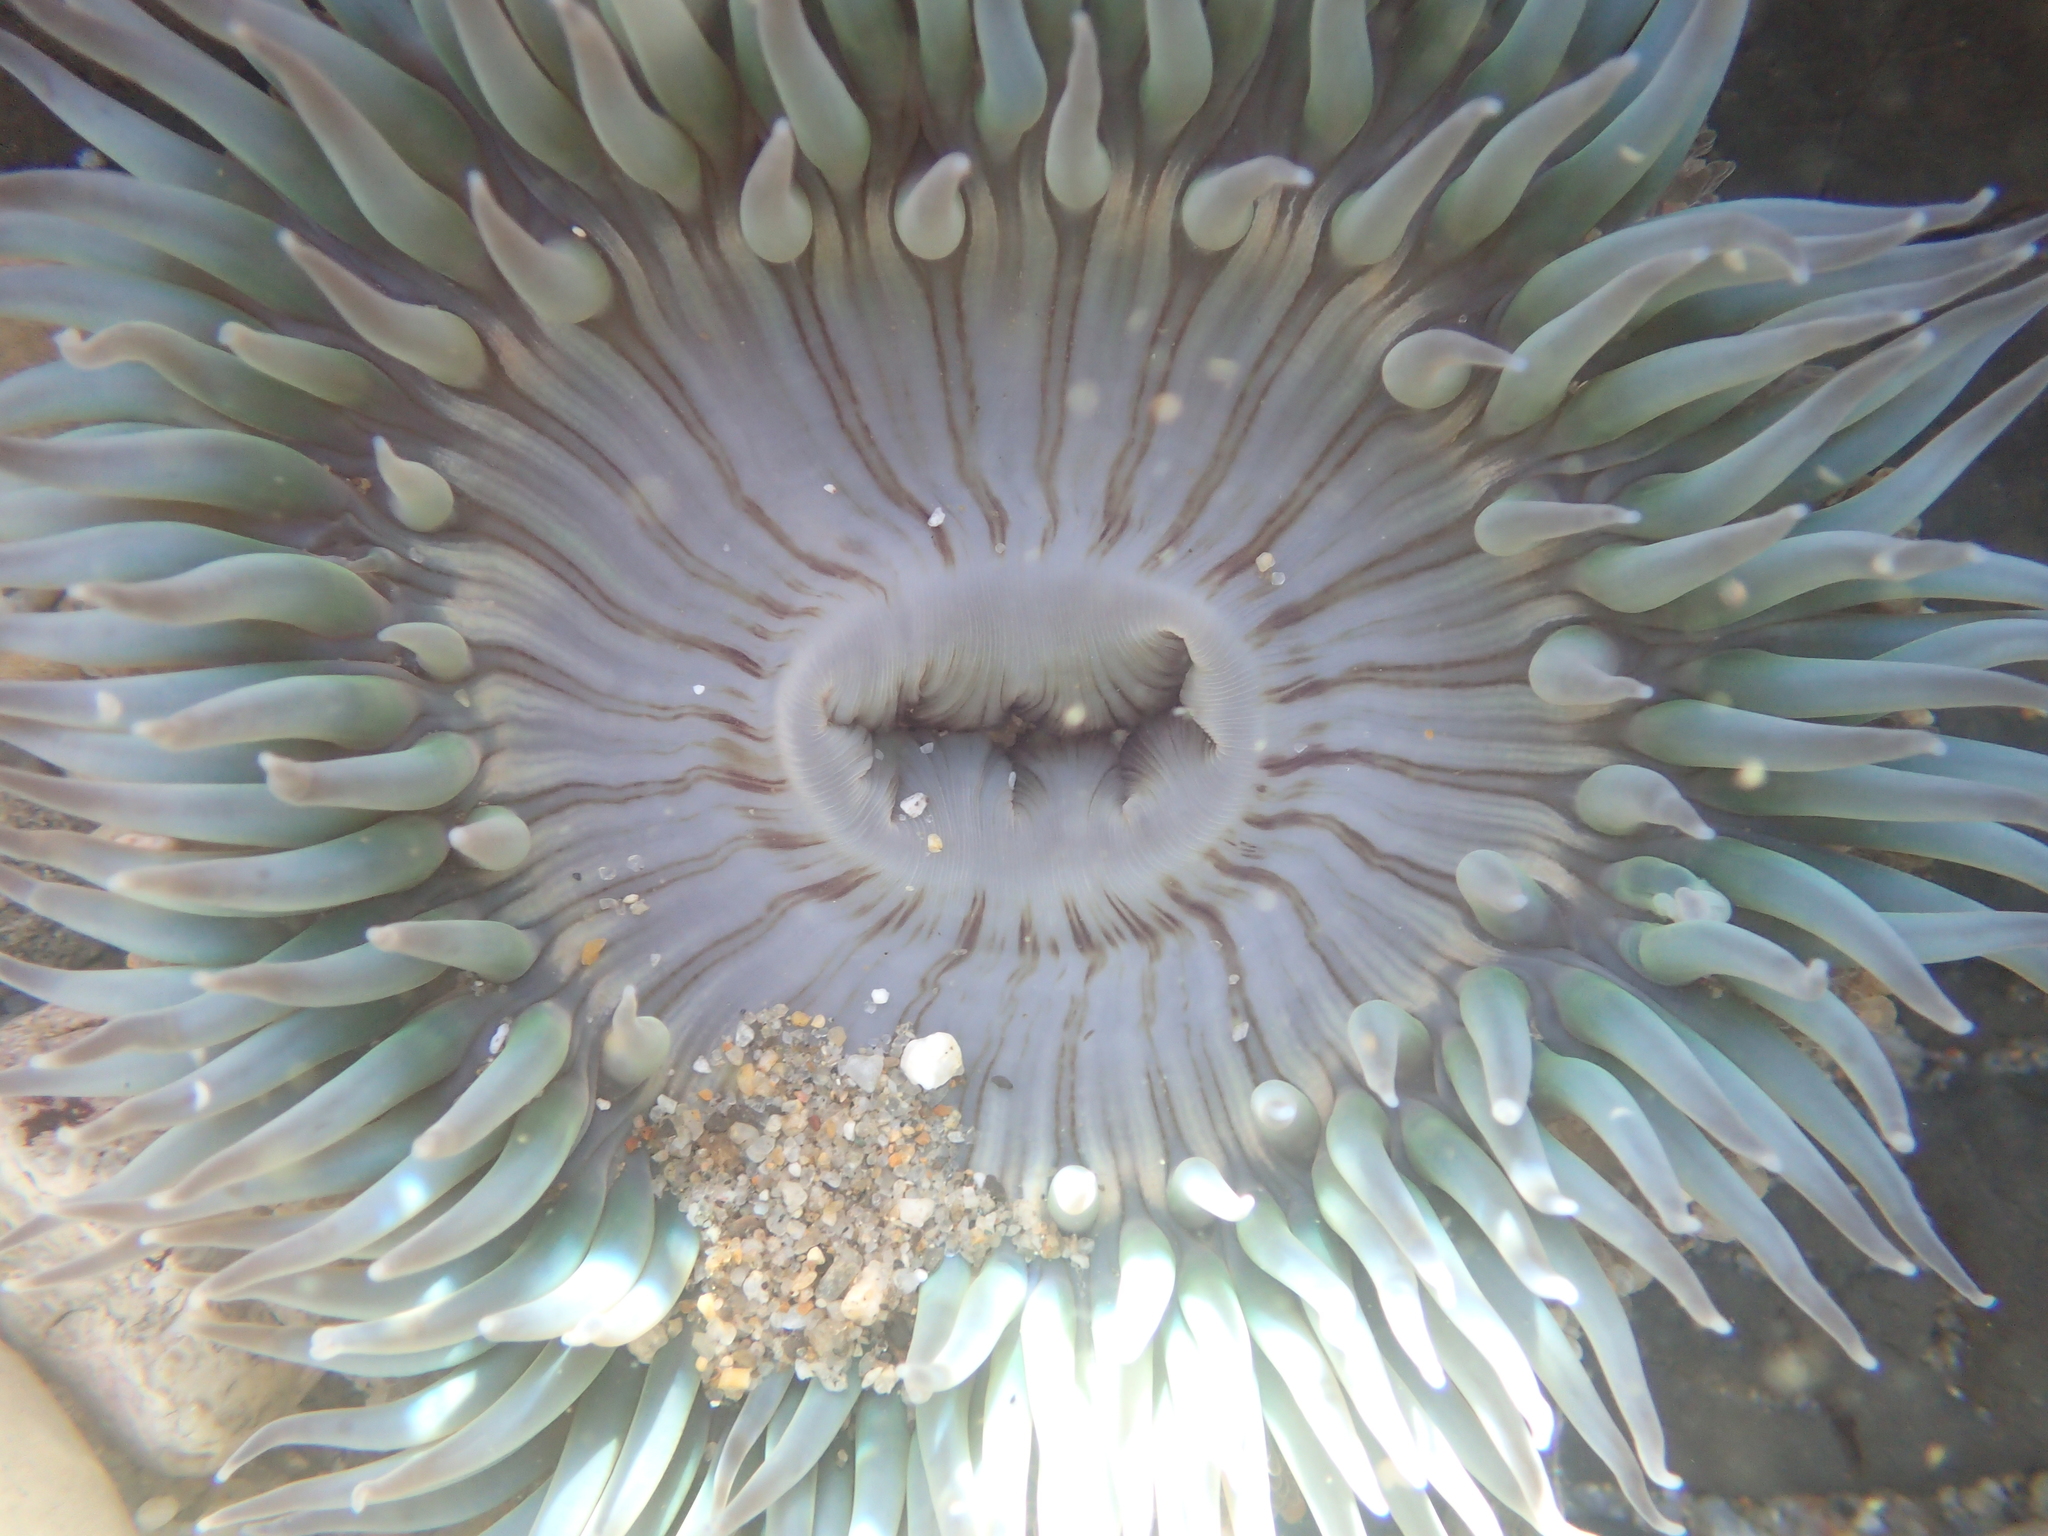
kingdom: Animalia
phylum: Cnidaria
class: Anthozoa
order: Actiniaria
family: Actiniidae
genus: Anthopleura
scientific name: Anthopleura sola
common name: Sun anemone
